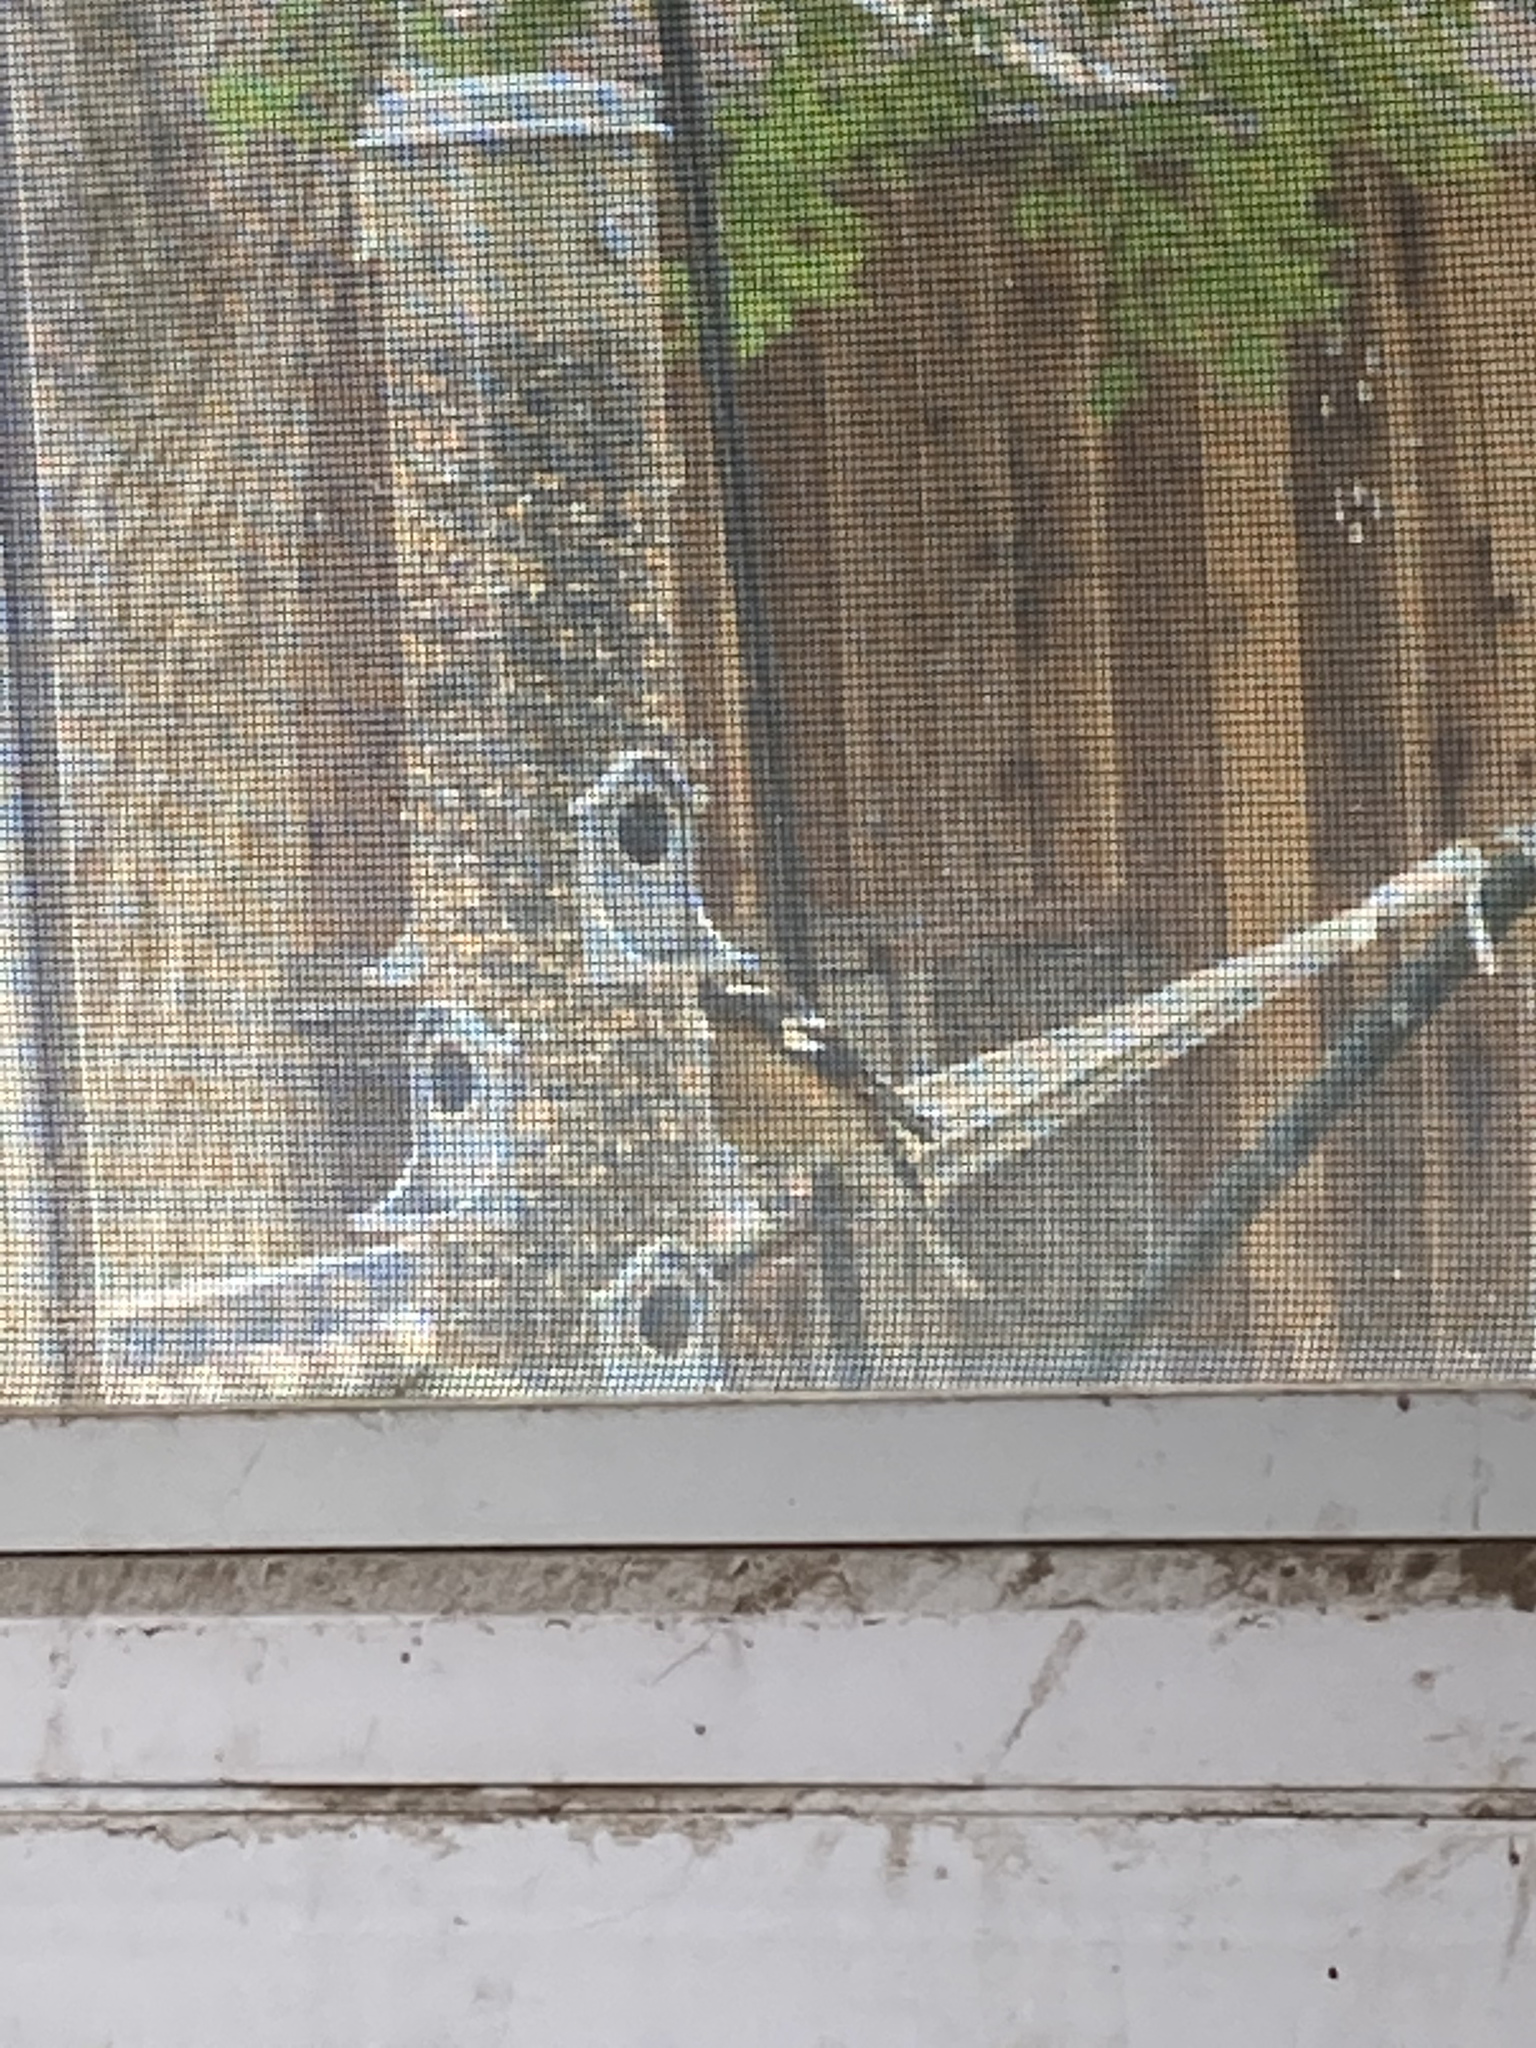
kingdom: Animalia
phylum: Chordata
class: Aves
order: Passeriformes
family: Cardinalidae
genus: Pheucticus
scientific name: Pheucticus melanocephalus
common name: Black-headed grosbeak
